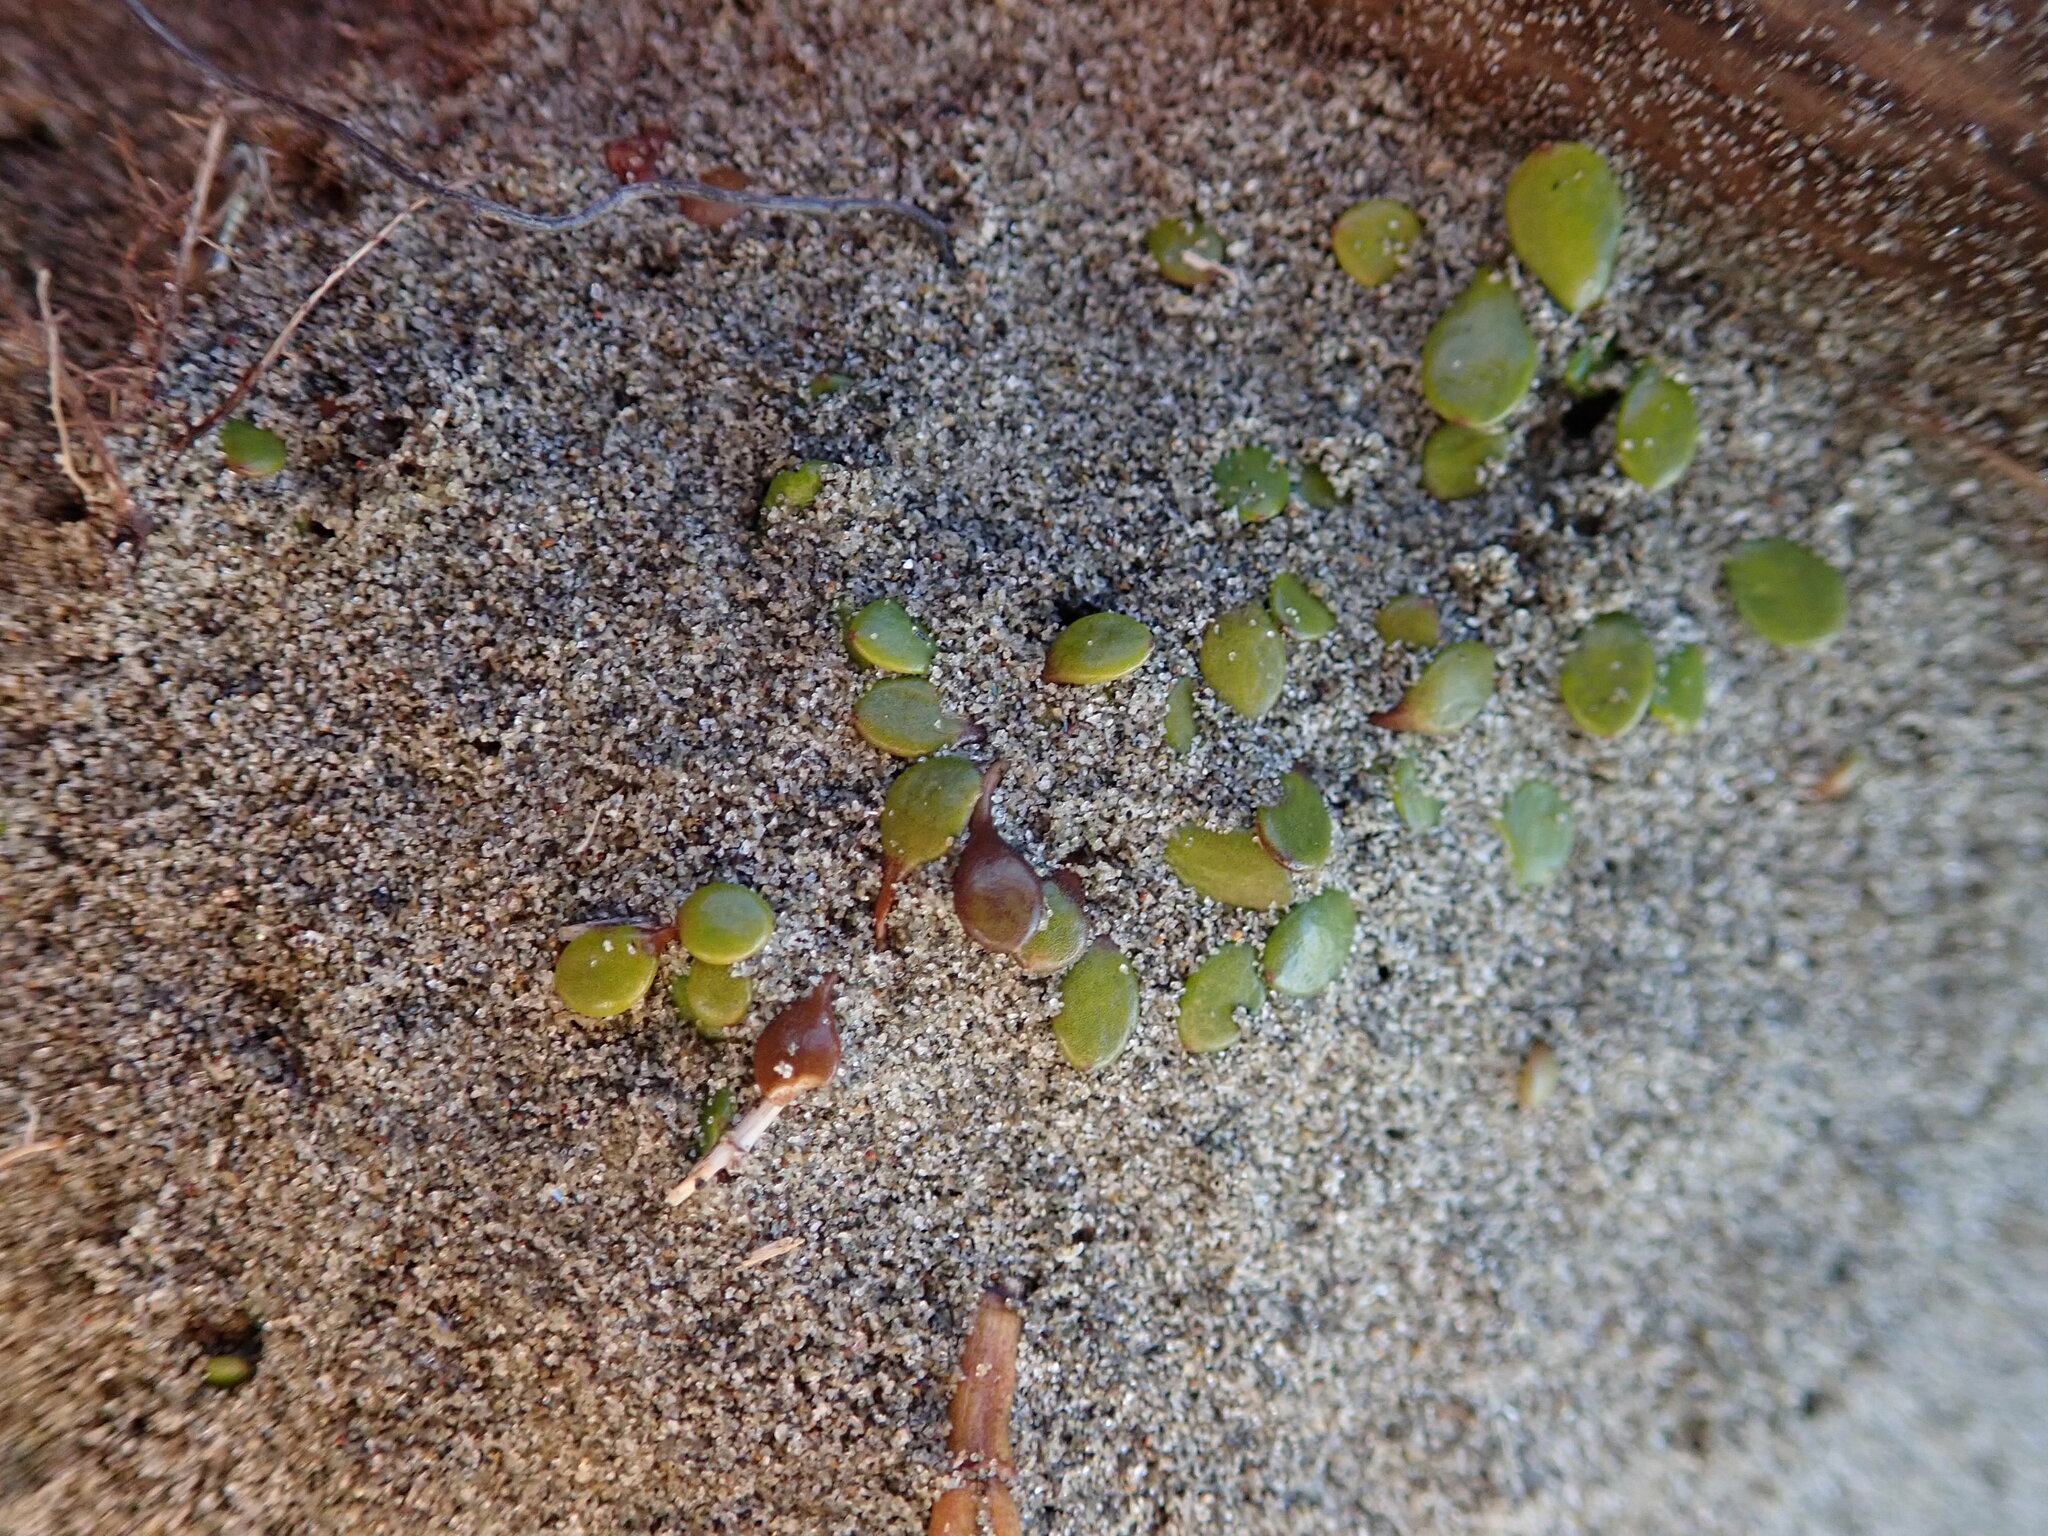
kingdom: Plantae
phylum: Tracheophyta
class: Magnoliopsida
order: Asterales
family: Goodeniaceae
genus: Goodenia
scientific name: Goodenia heenanii
